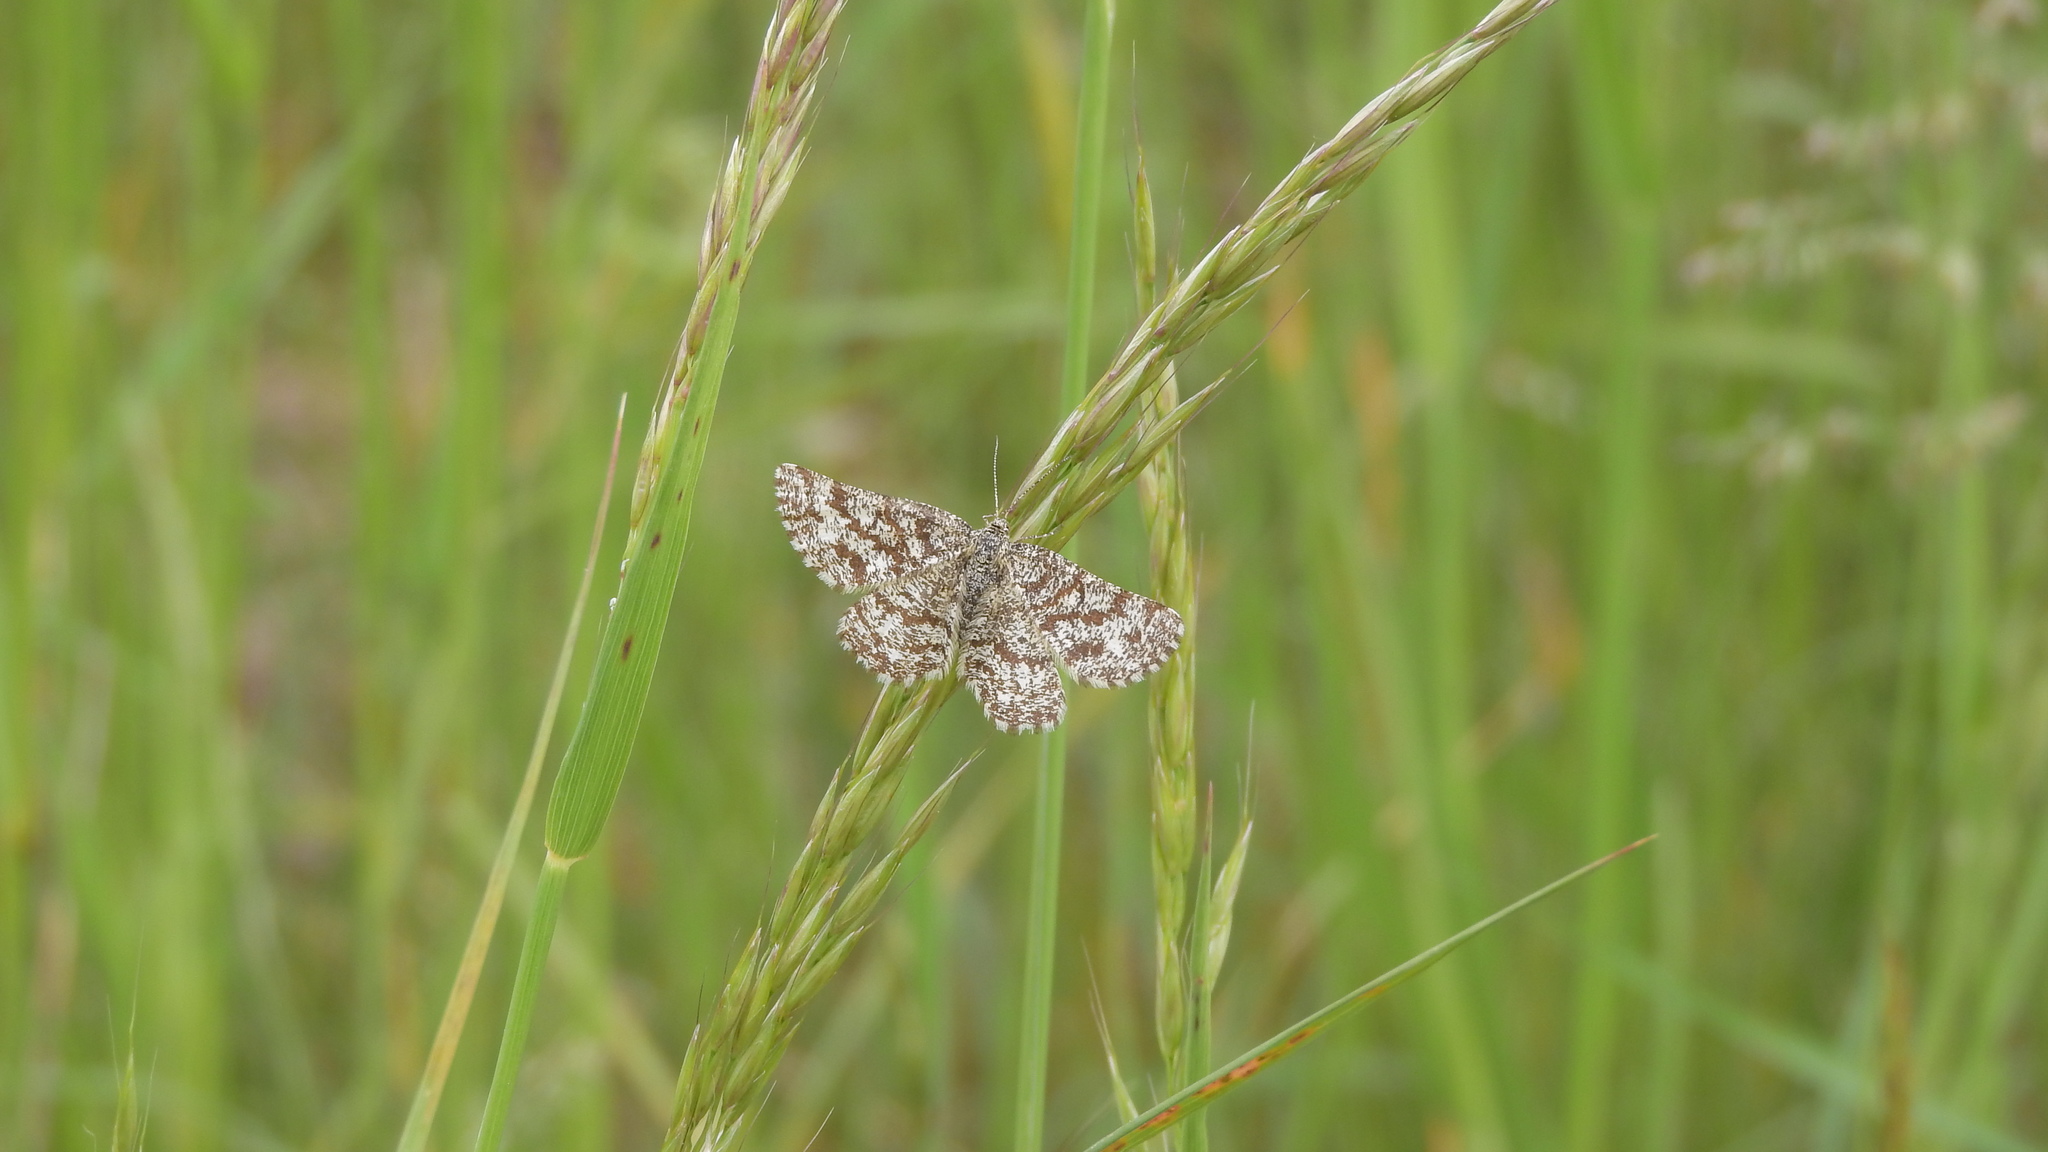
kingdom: Animalia
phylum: Arthropoda
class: Insecta
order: Lepidoptera
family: Geometridae
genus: Ematurga
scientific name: Ematurga atomaria
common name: Common heath
